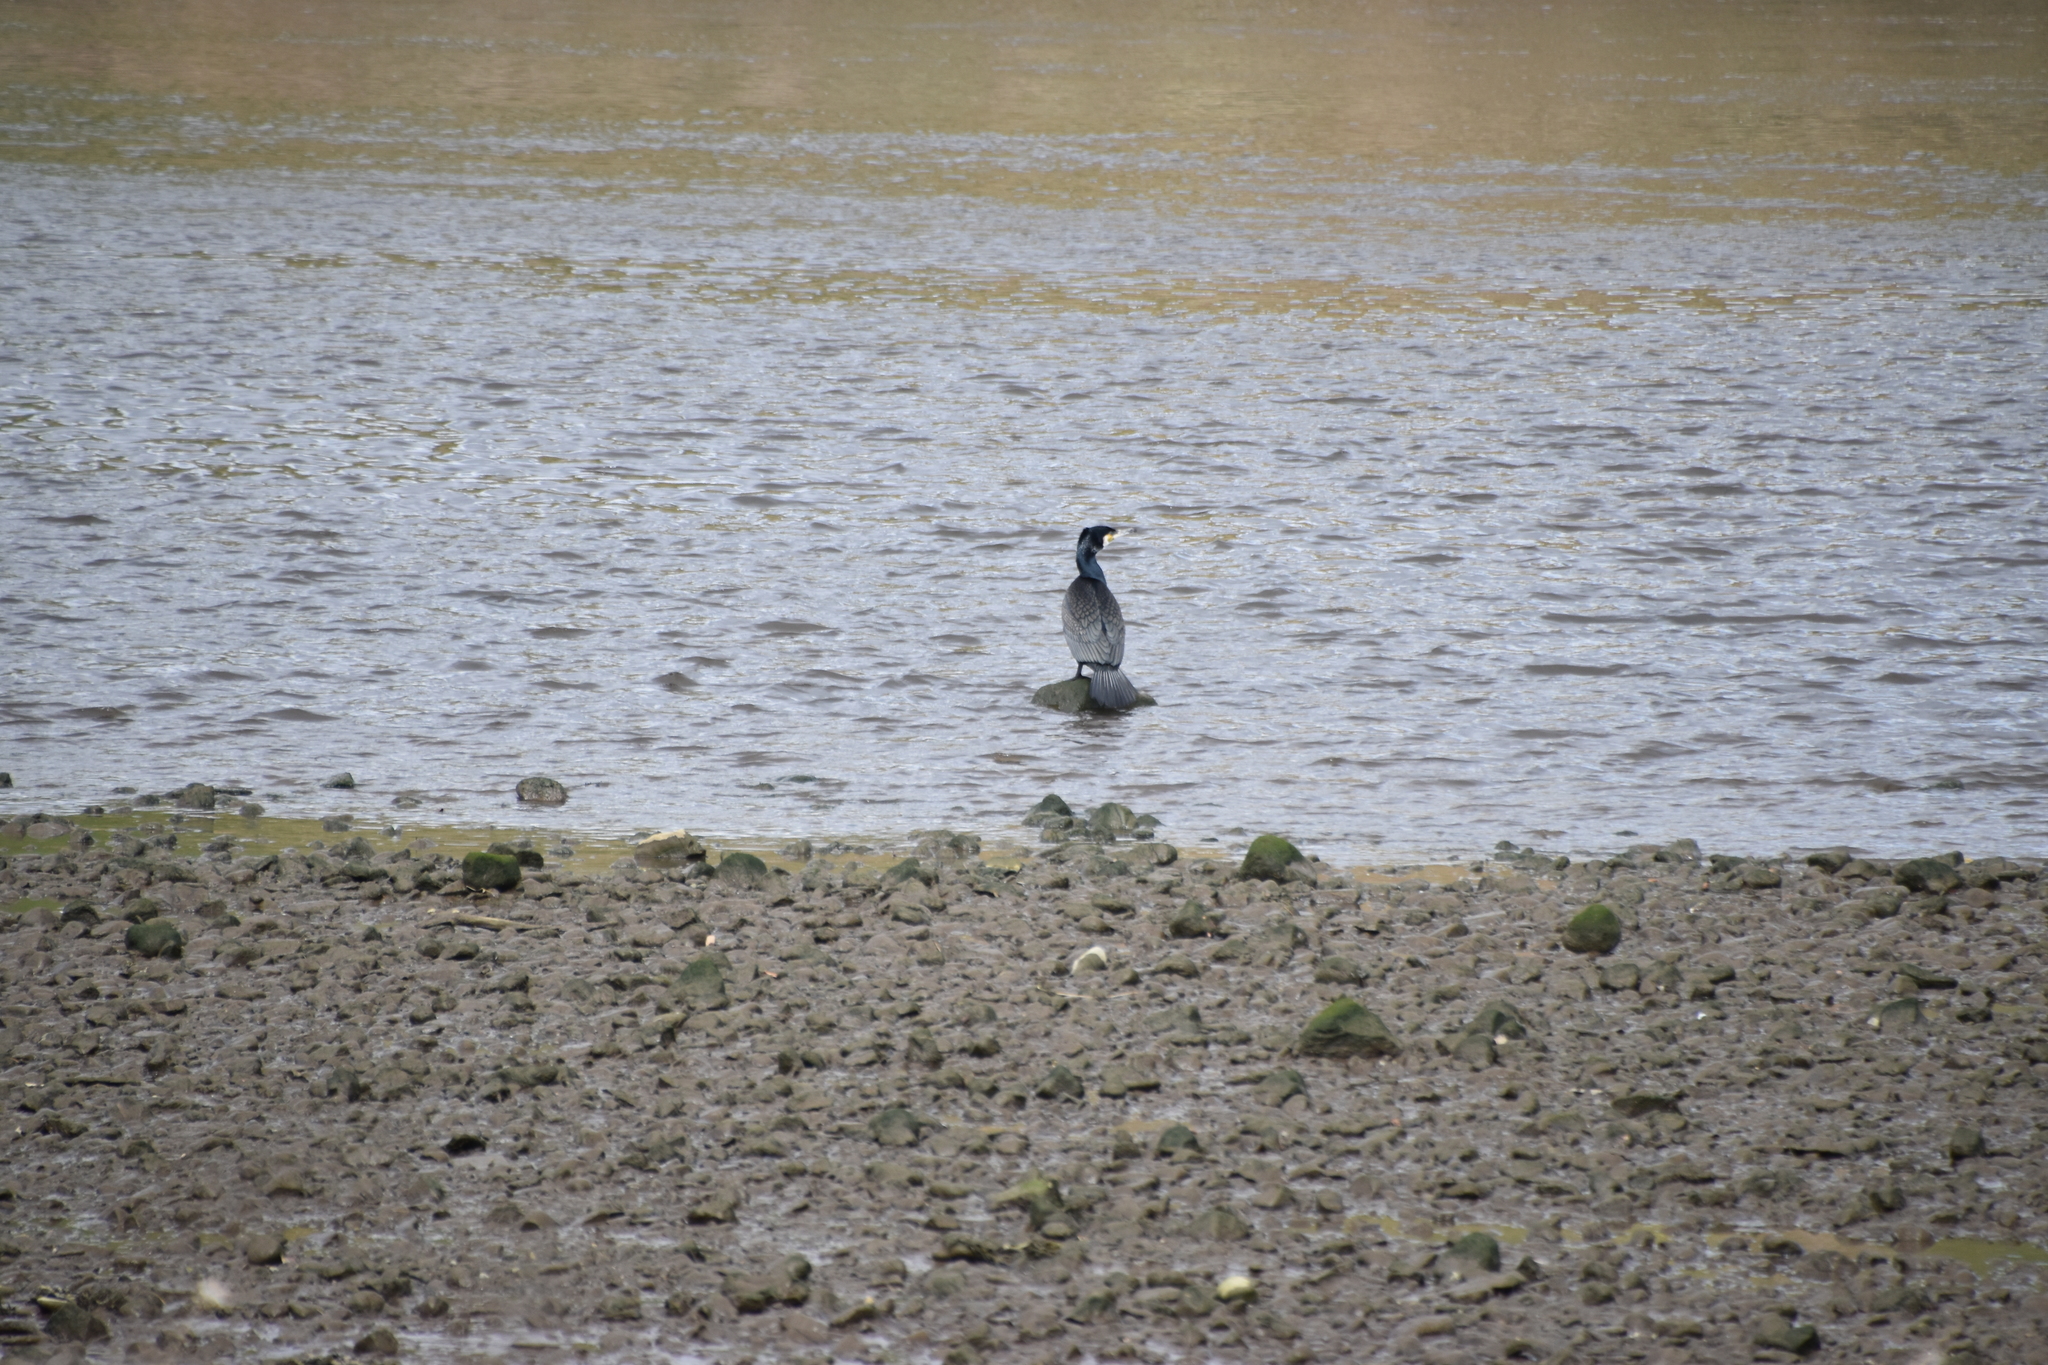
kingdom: Animalia
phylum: Chordata
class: Aves
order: Suliformes
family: Phalacrocoracidae
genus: Phalacrocorax
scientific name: Phalacrocorax carbo
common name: Great cormorant
